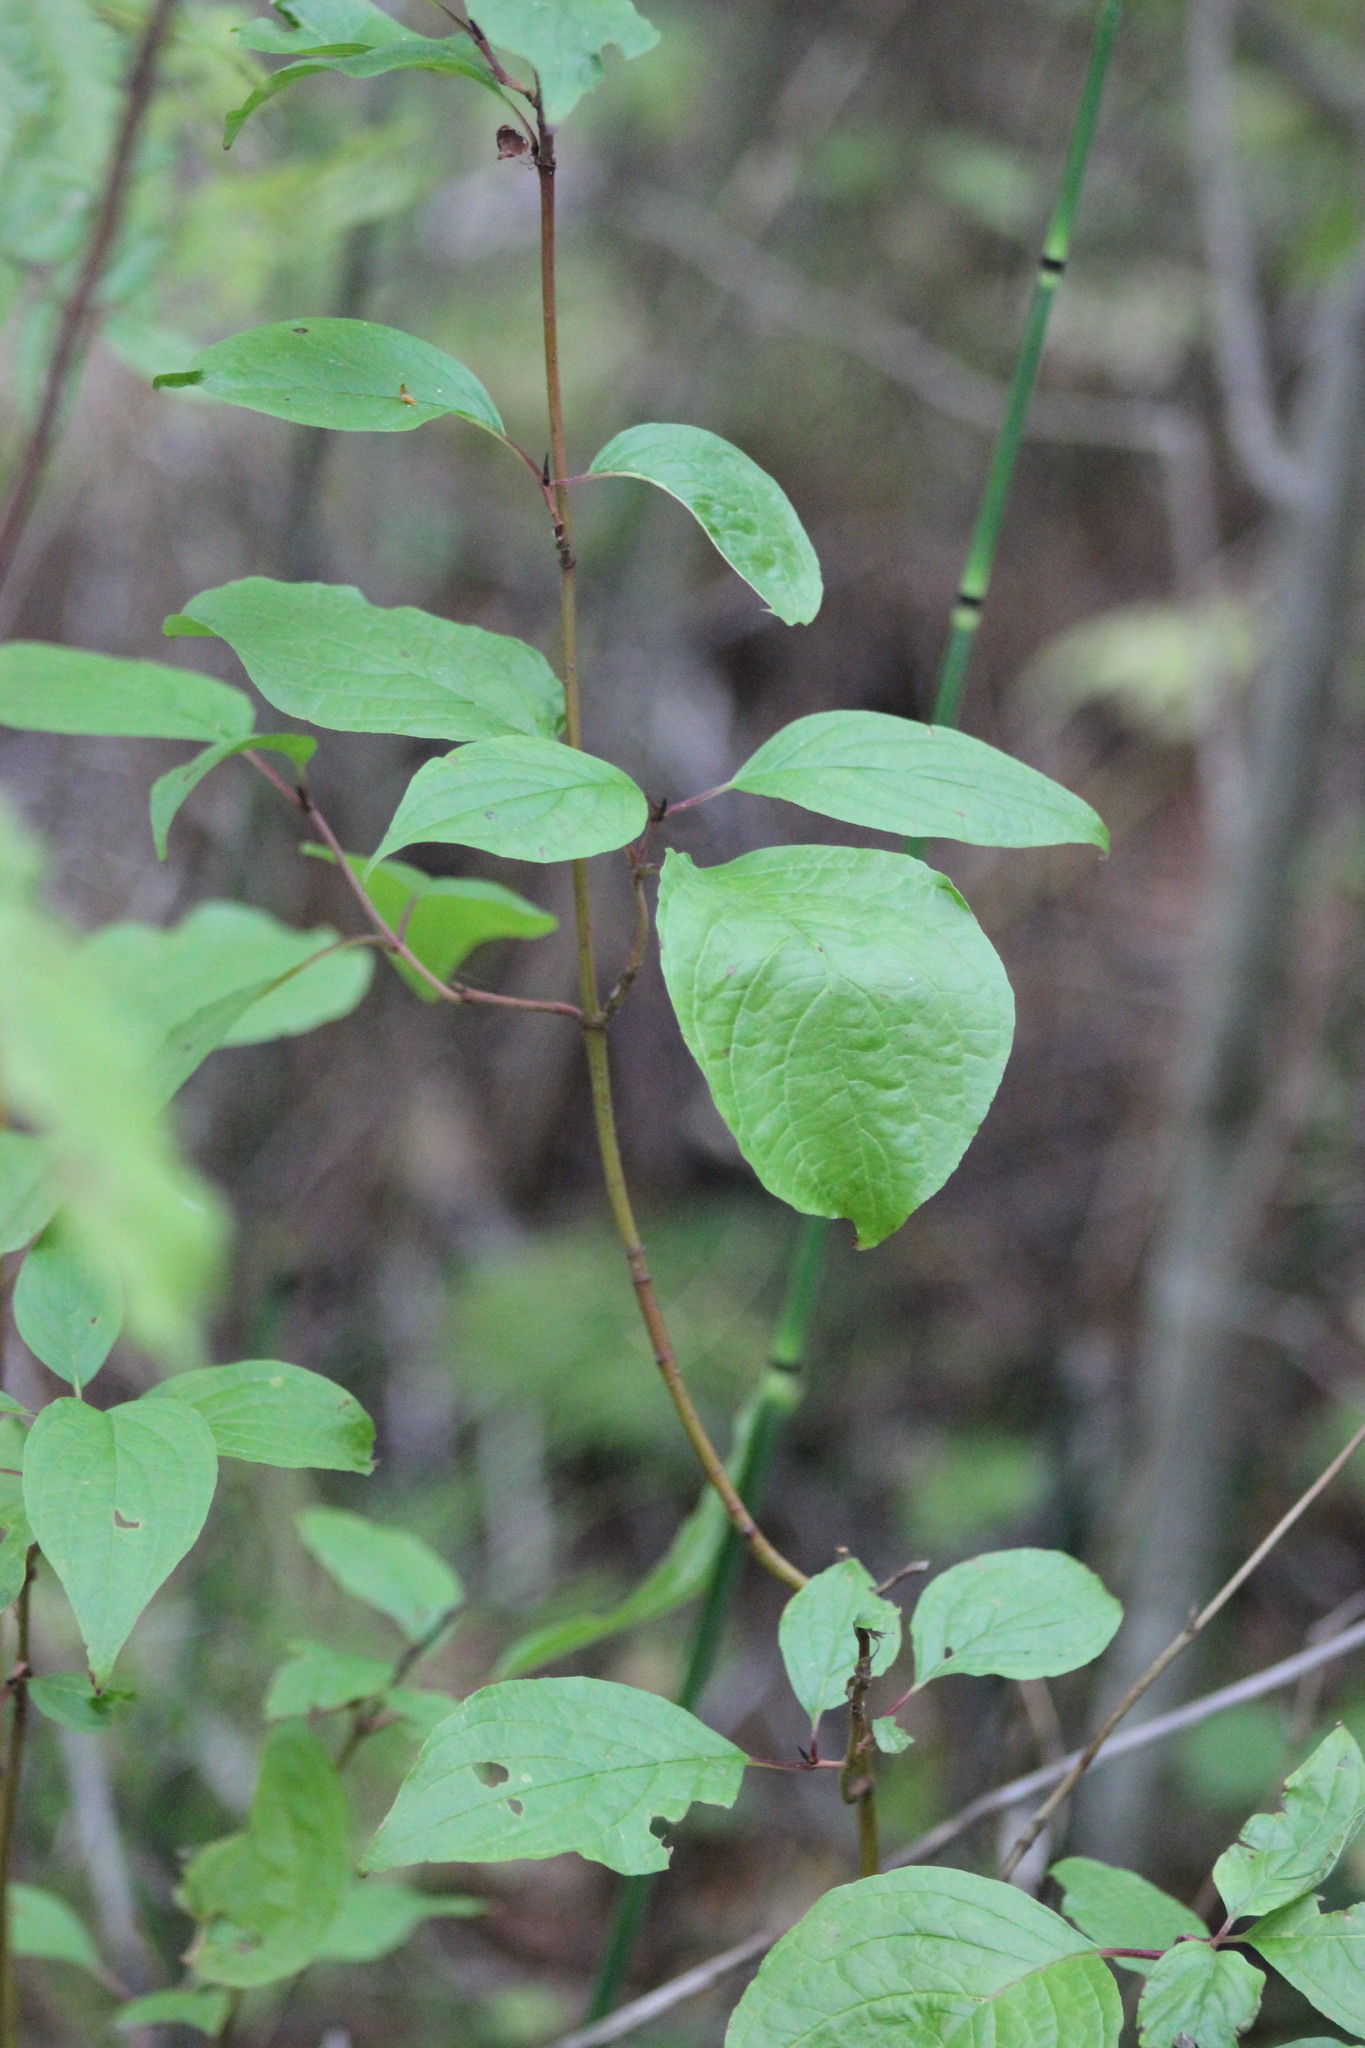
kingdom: Plantae
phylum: Tracheophyta
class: Magnoliopsida
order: Cornales
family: Cornaceae
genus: Cornus
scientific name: Cornus alba
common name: White dogwood
